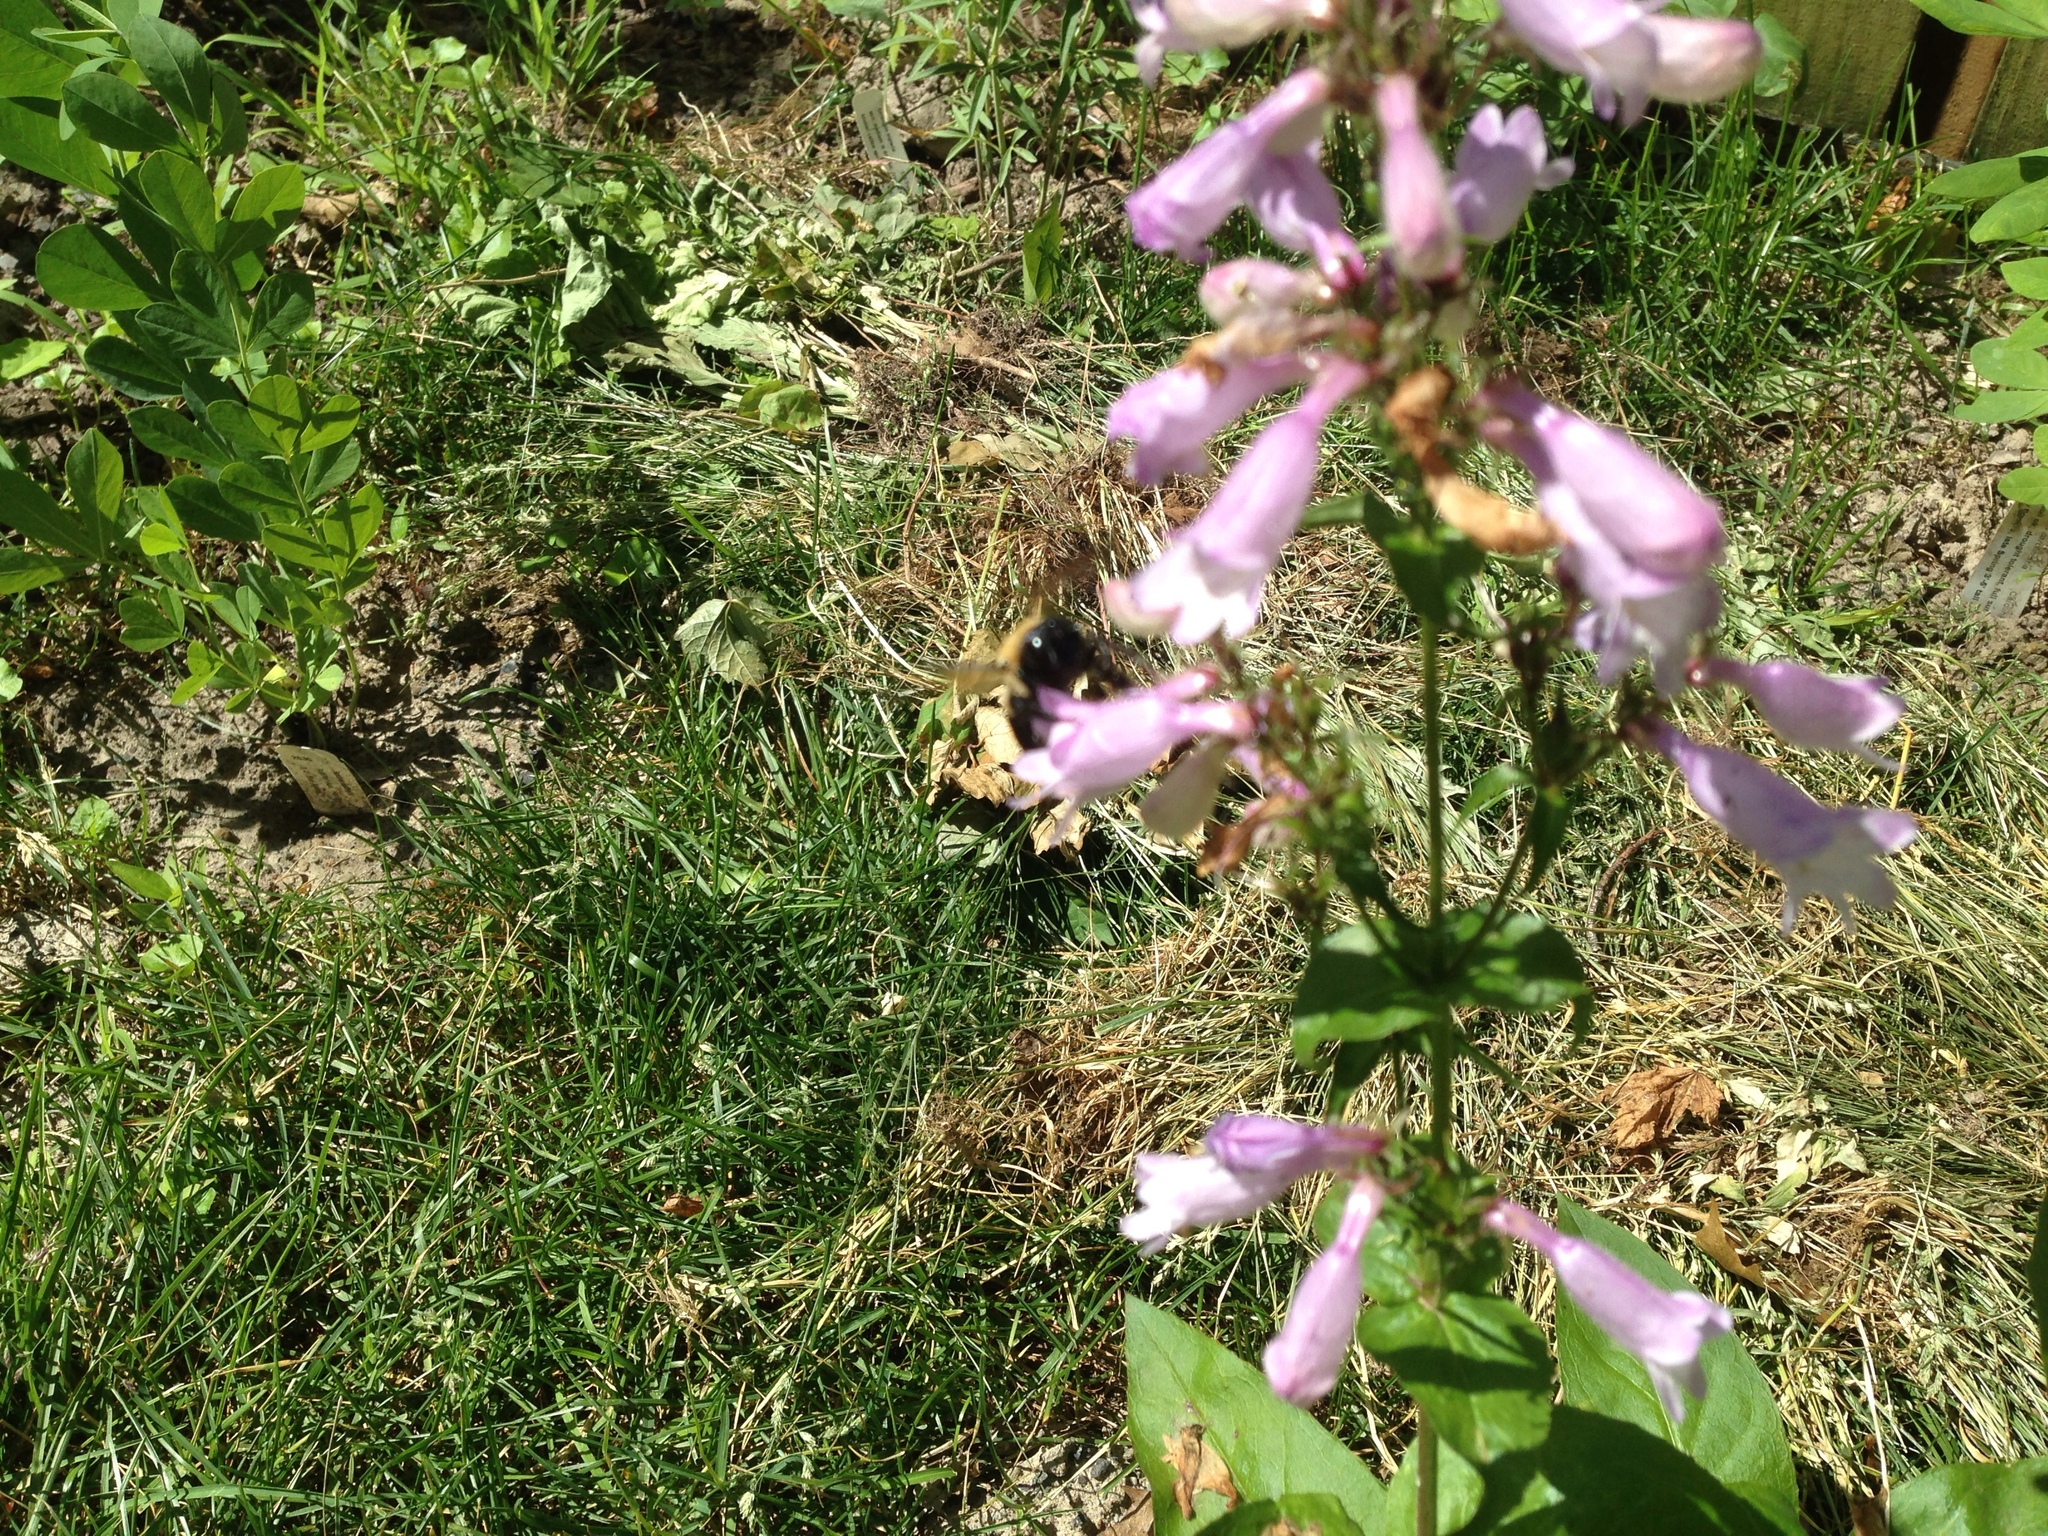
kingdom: Animalia
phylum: Arthropoda
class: Insecta
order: Hymenoptera
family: Apidae
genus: Xylocopa
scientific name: Xylocopa virginica
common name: Carpenter bee
